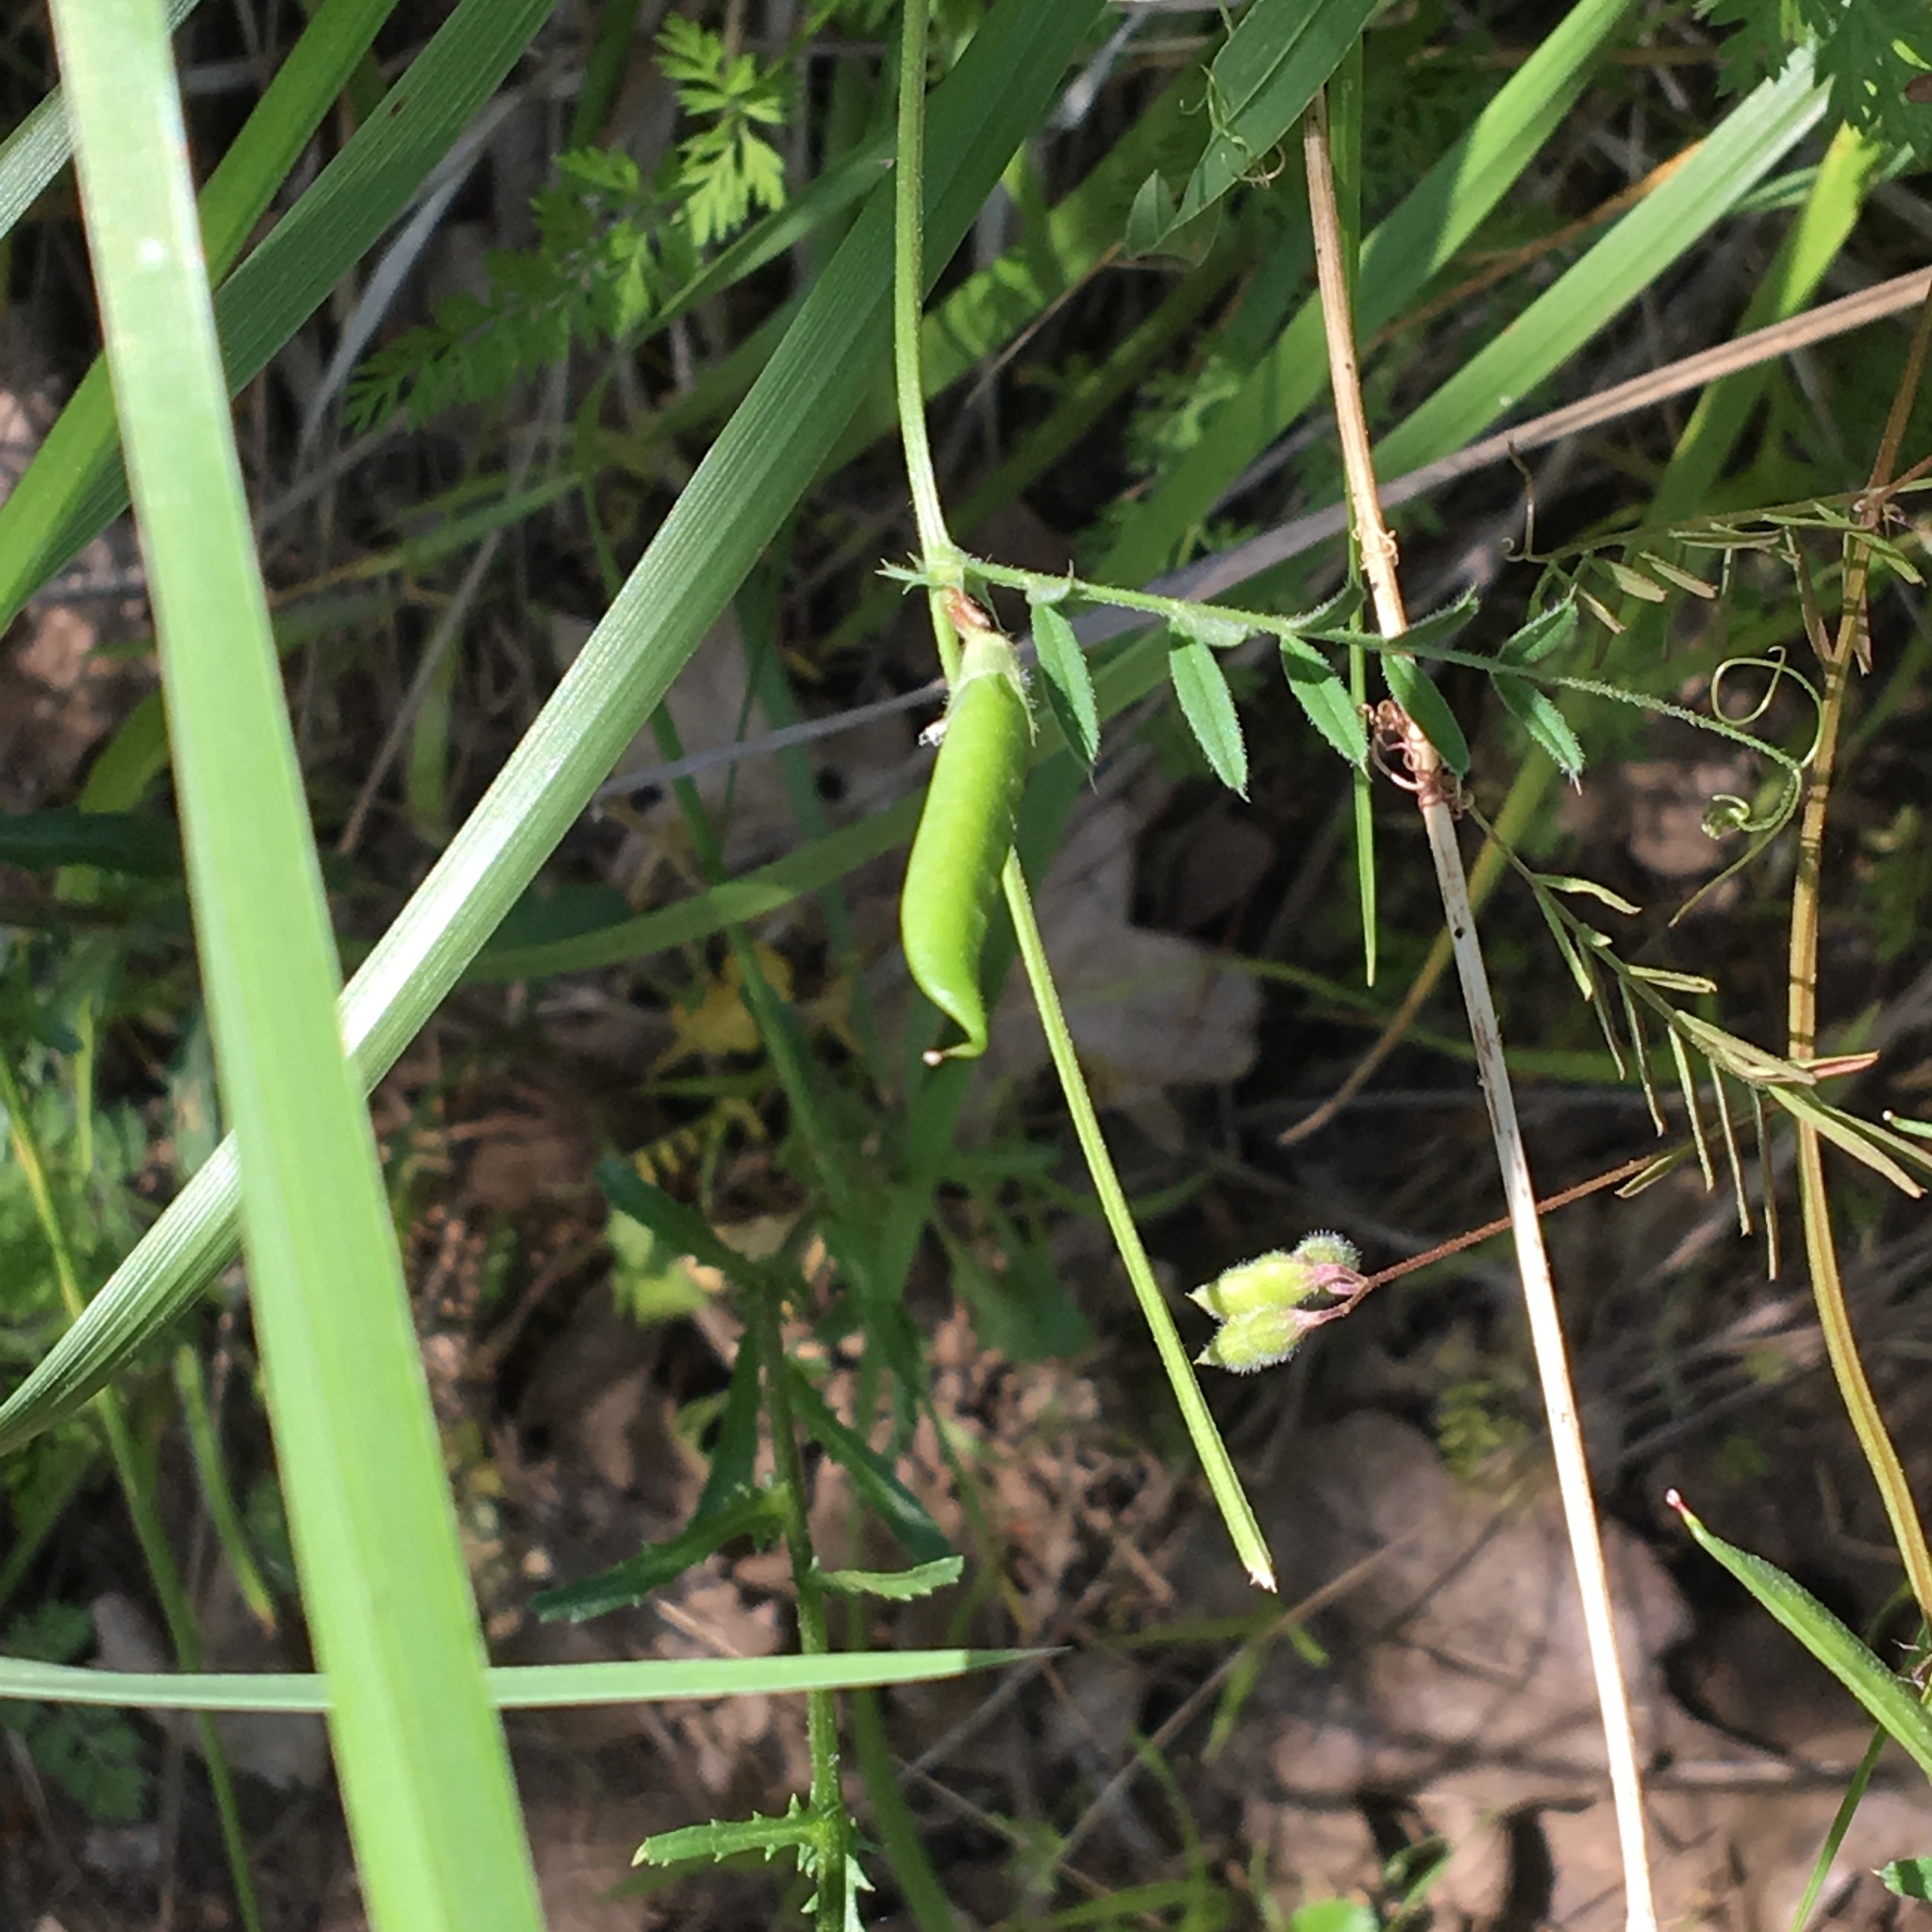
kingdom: Plantae
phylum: Tracheophyta
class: Magnoliopsida
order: Fabales
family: Fabaceae
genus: Vicia
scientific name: Vicia sativa
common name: Garden vetch
